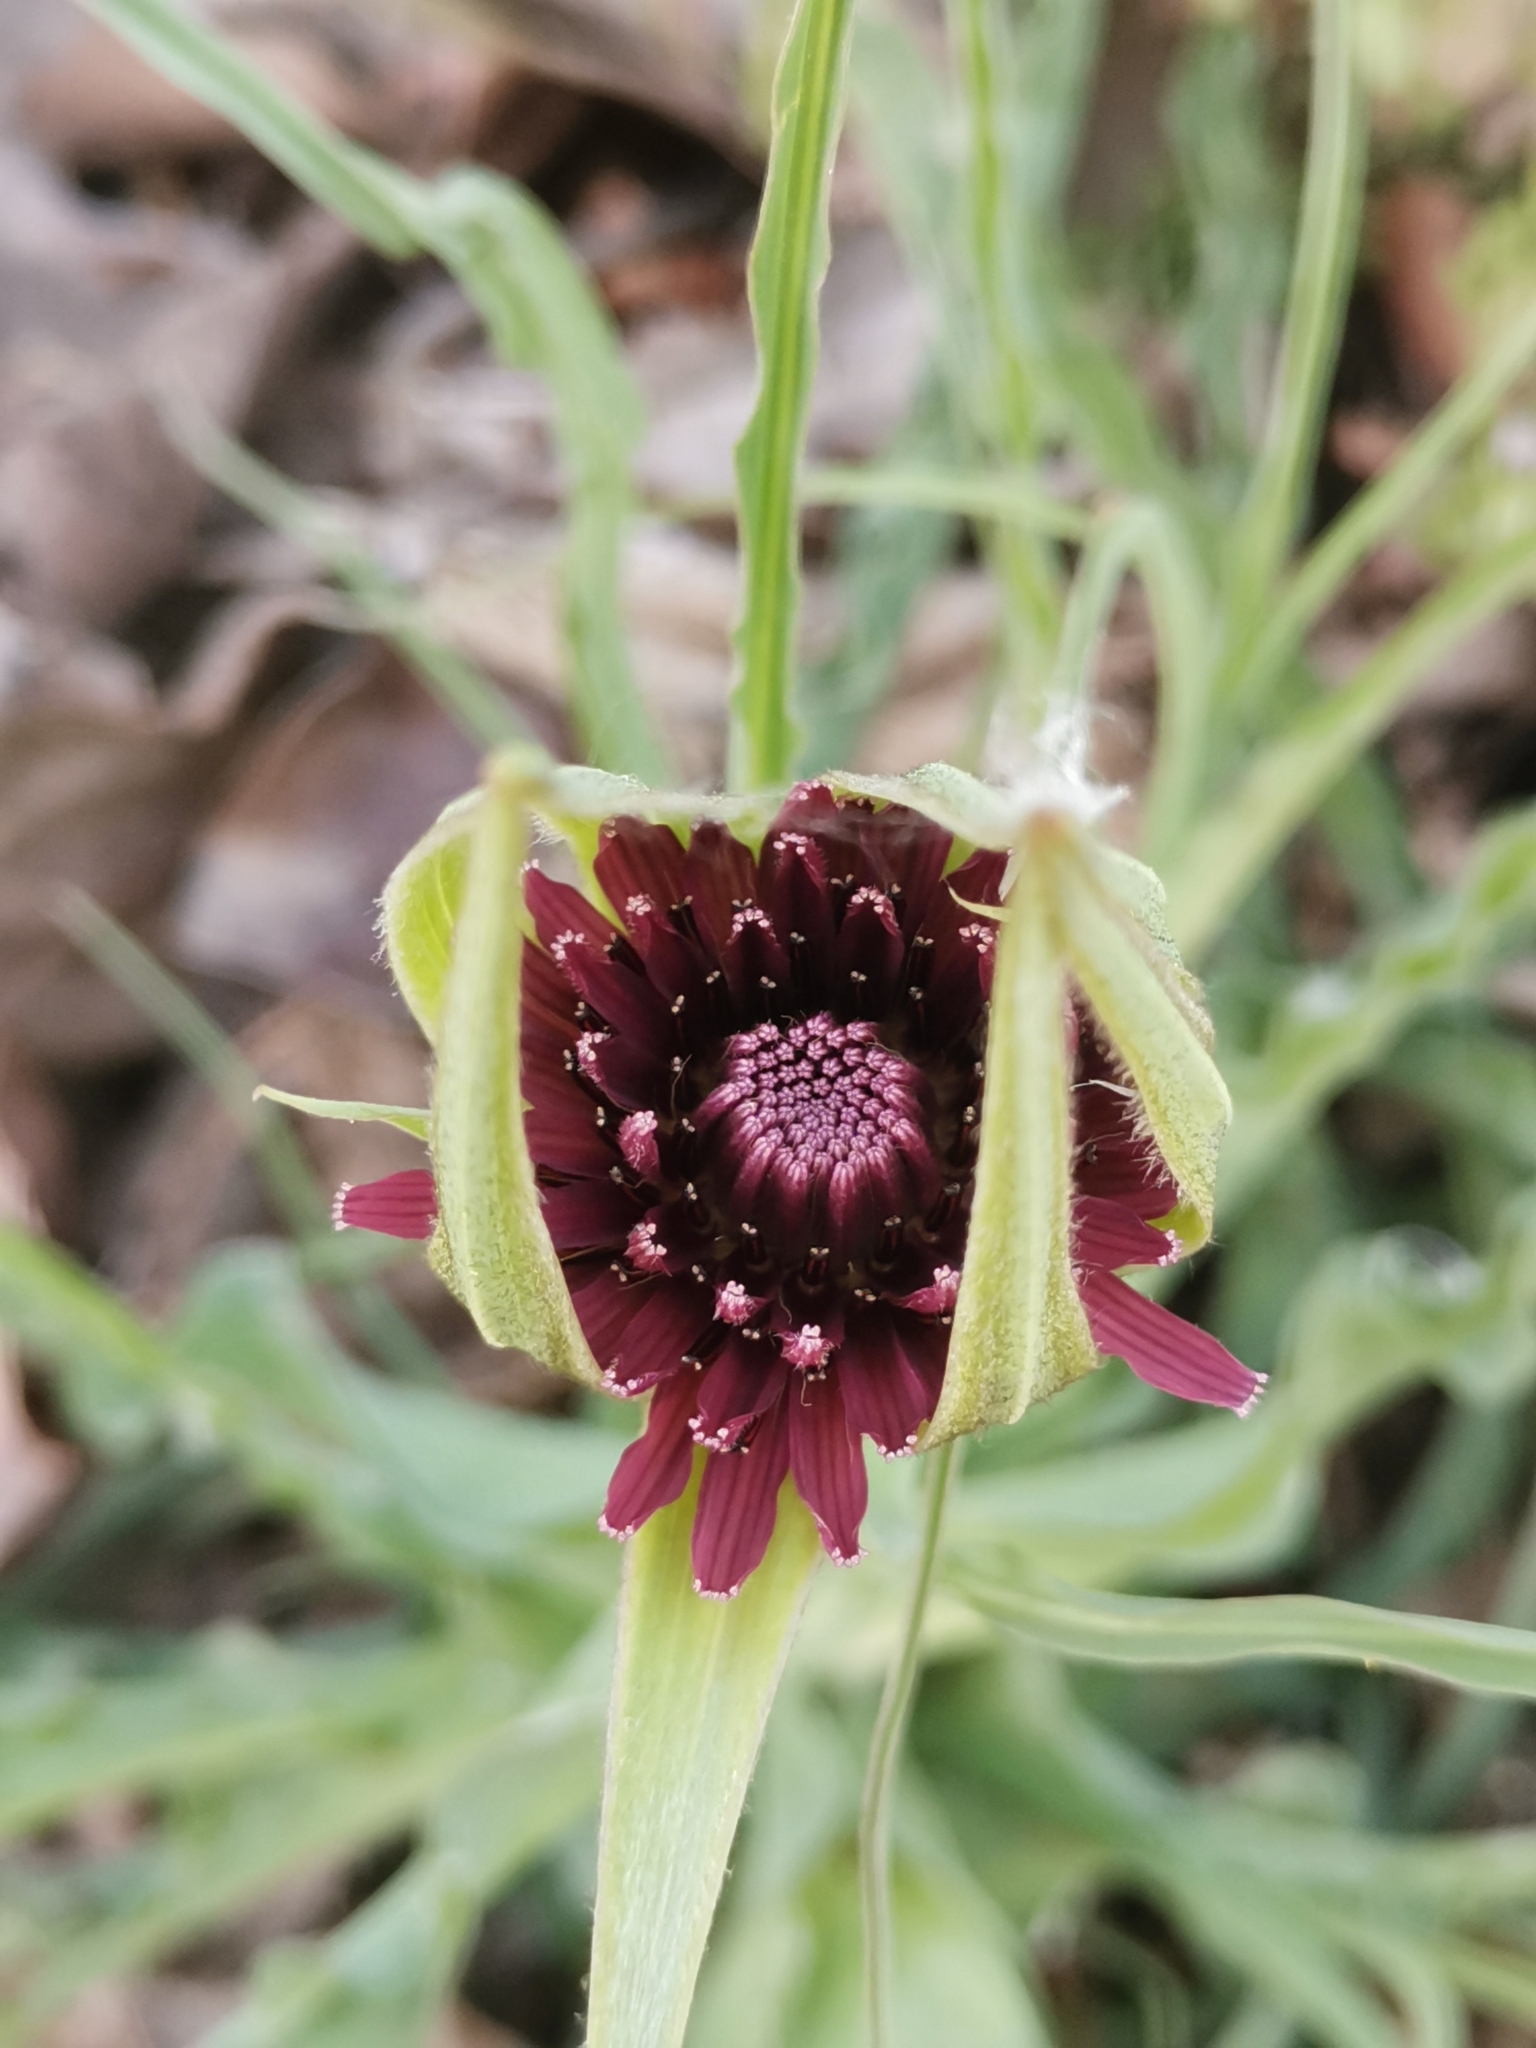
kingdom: Plantae
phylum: Tracheophyta
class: Magnoliopsida
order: Asterales
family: Asteraceae
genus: Tragopogon
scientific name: Tragopogon porrifolius
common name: Salsify
